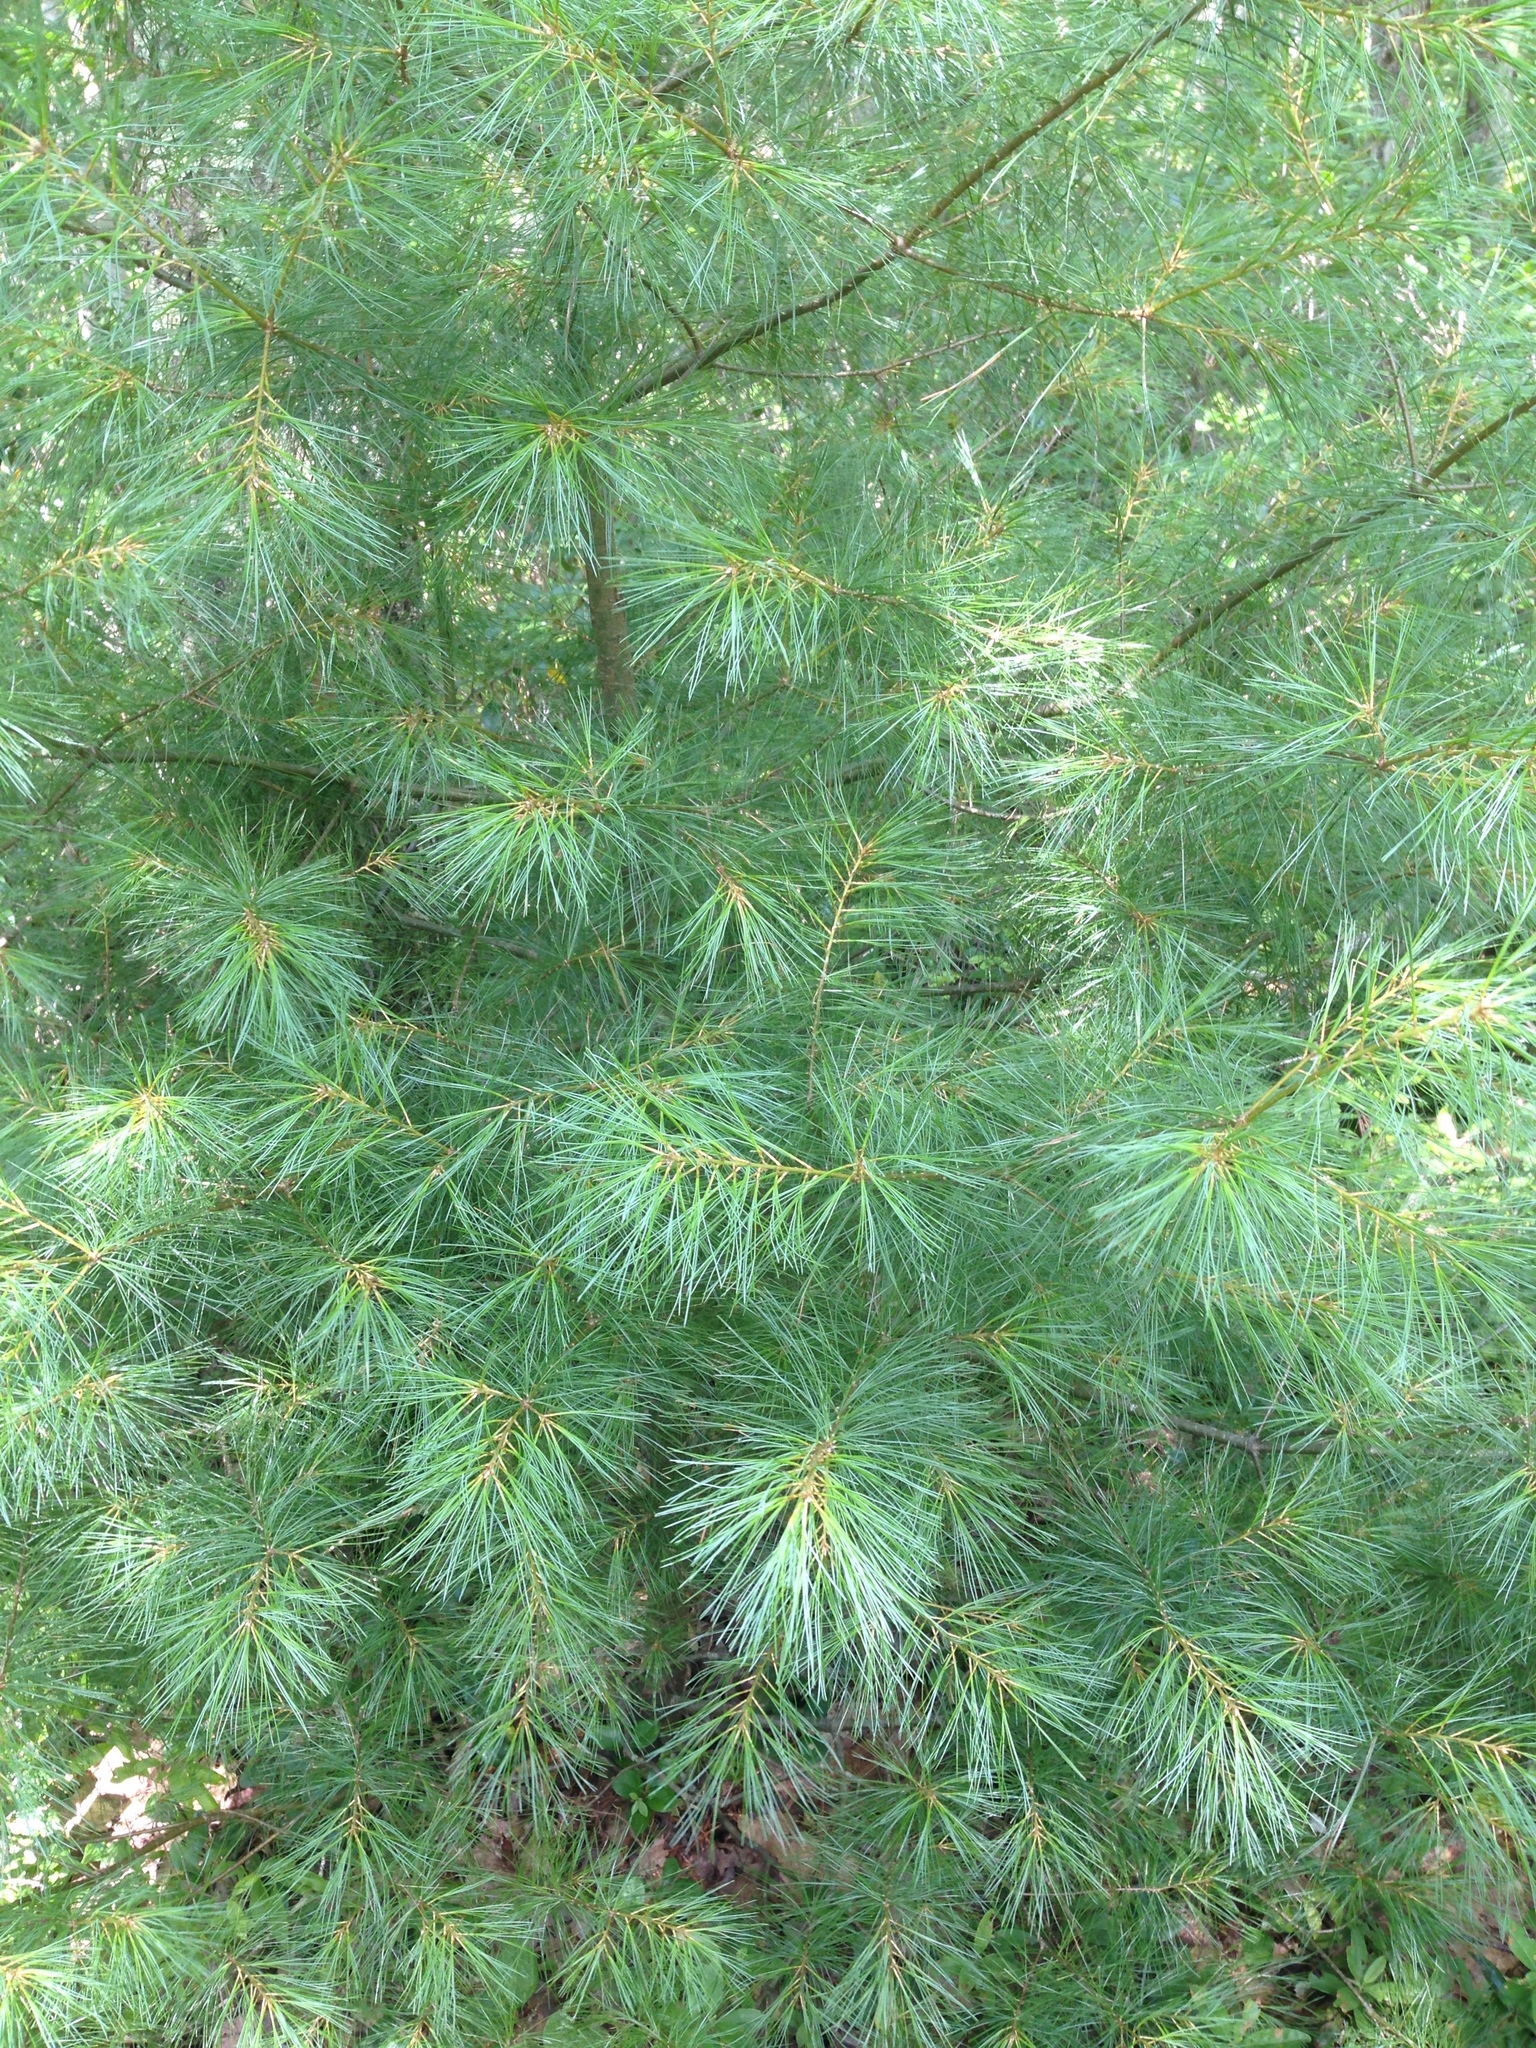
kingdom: Plantae
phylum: Tracheophyta
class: Pinopsida
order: Pinales
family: Pinaceae
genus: Pinus
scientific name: Pinus strobus
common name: Weymouth pine
